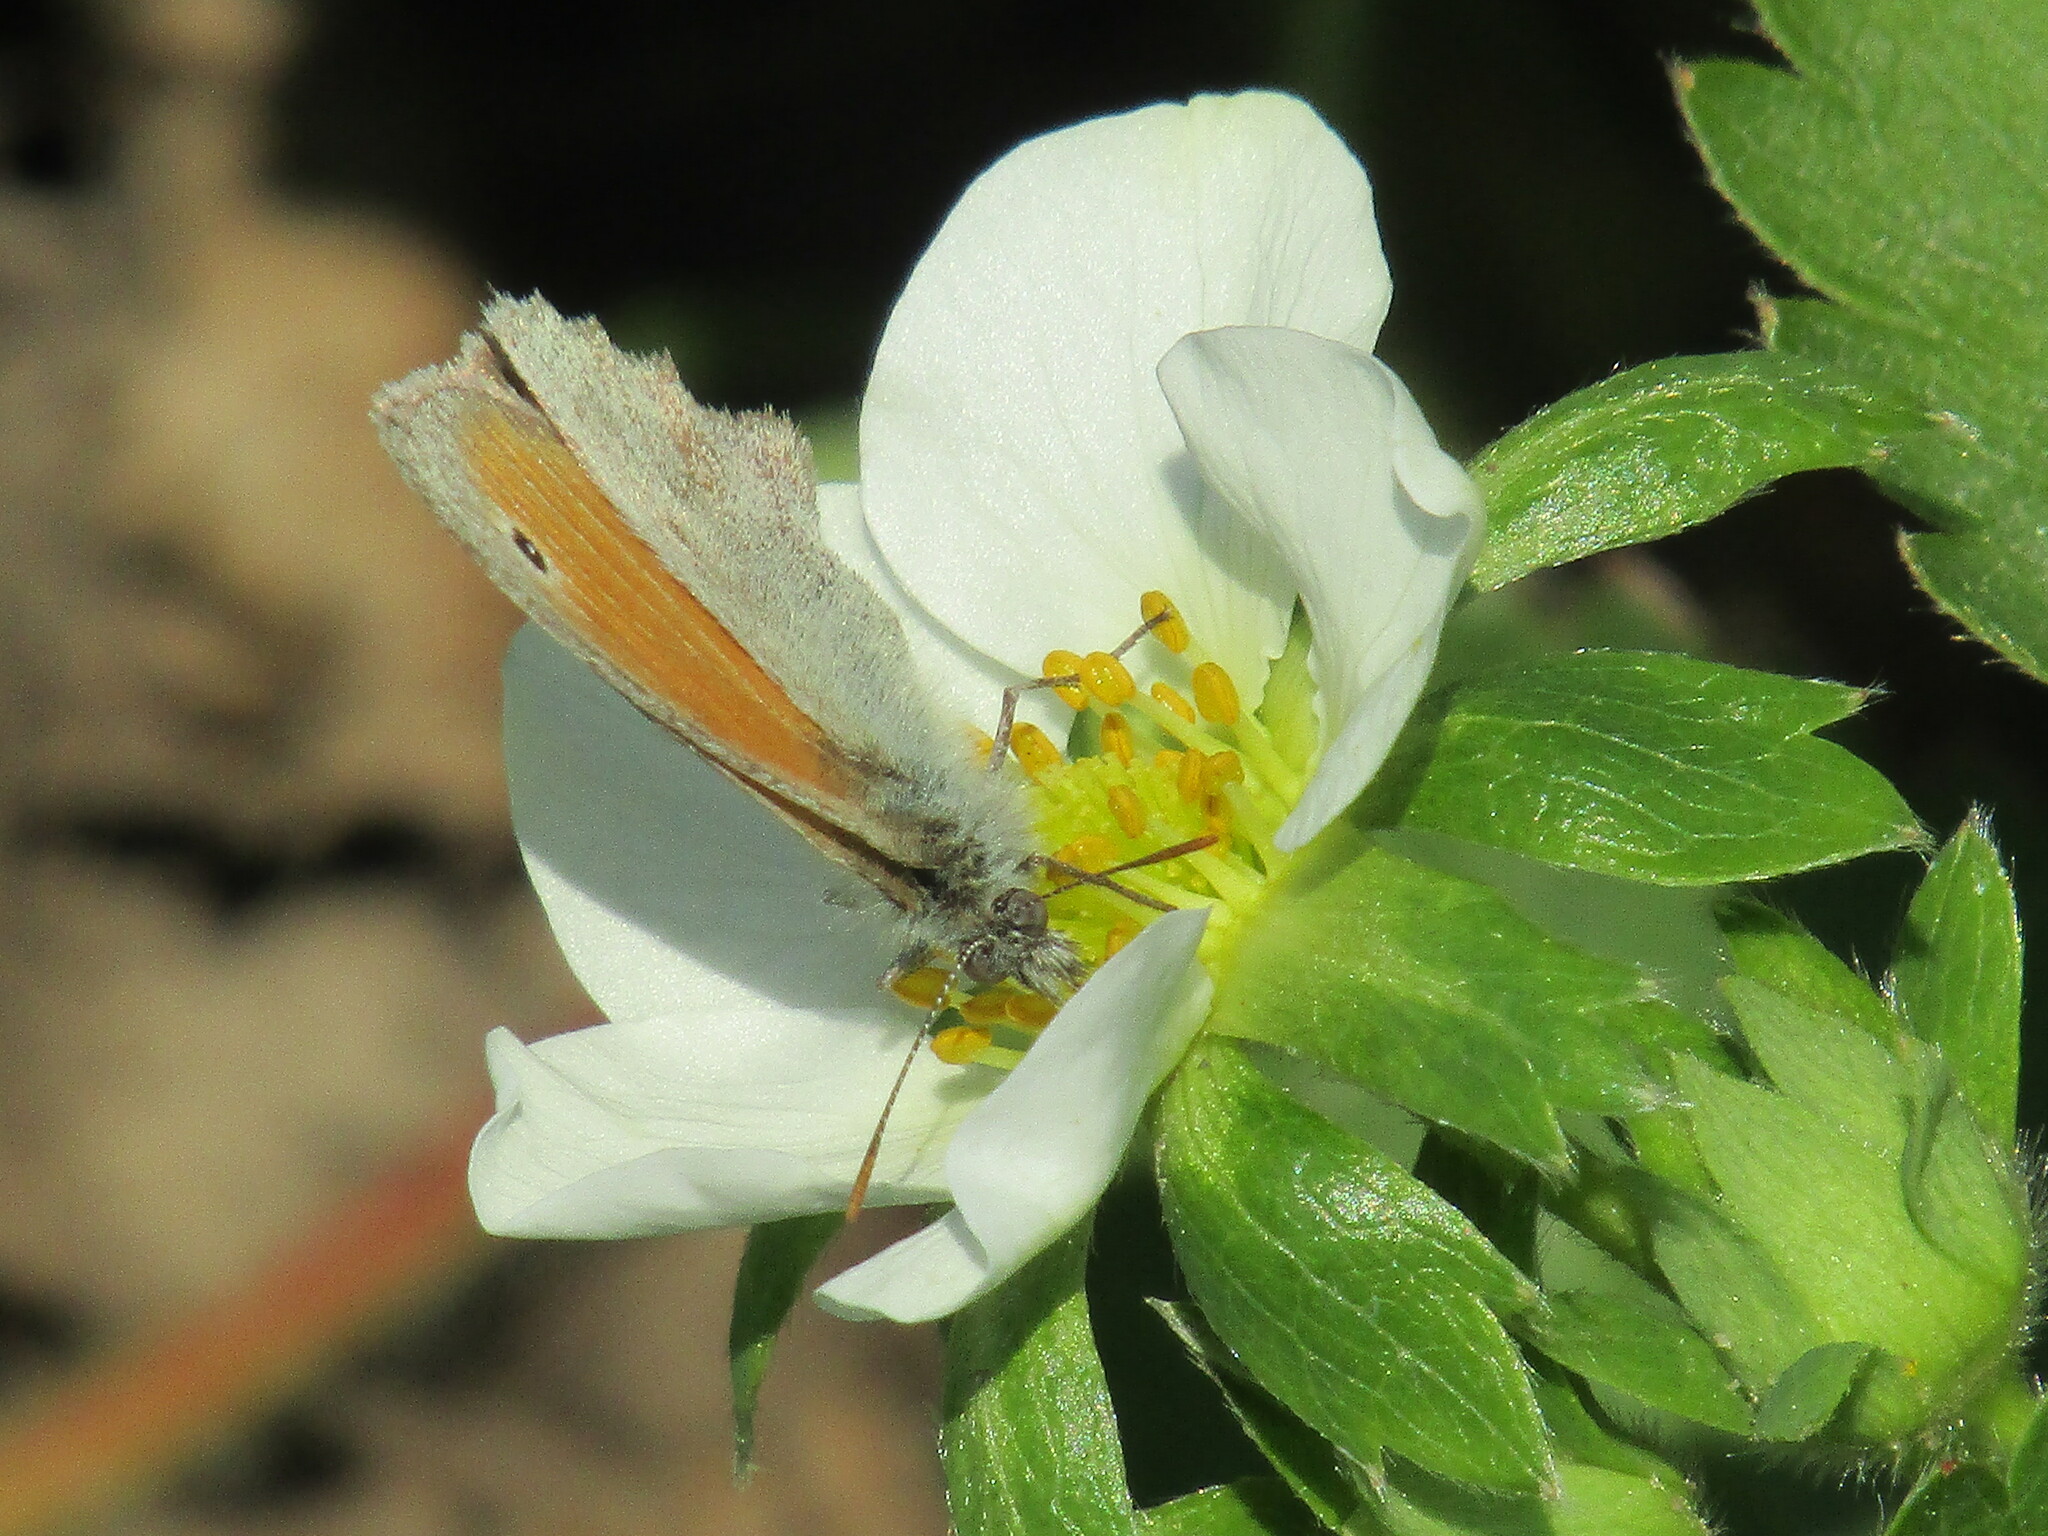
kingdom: Animalia
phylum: Arthropoda
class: Insecta
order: Lepidoptera
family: Nymphalidae
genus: Coenonympha
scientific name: Coenonympha pamphilus
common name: Small heath
